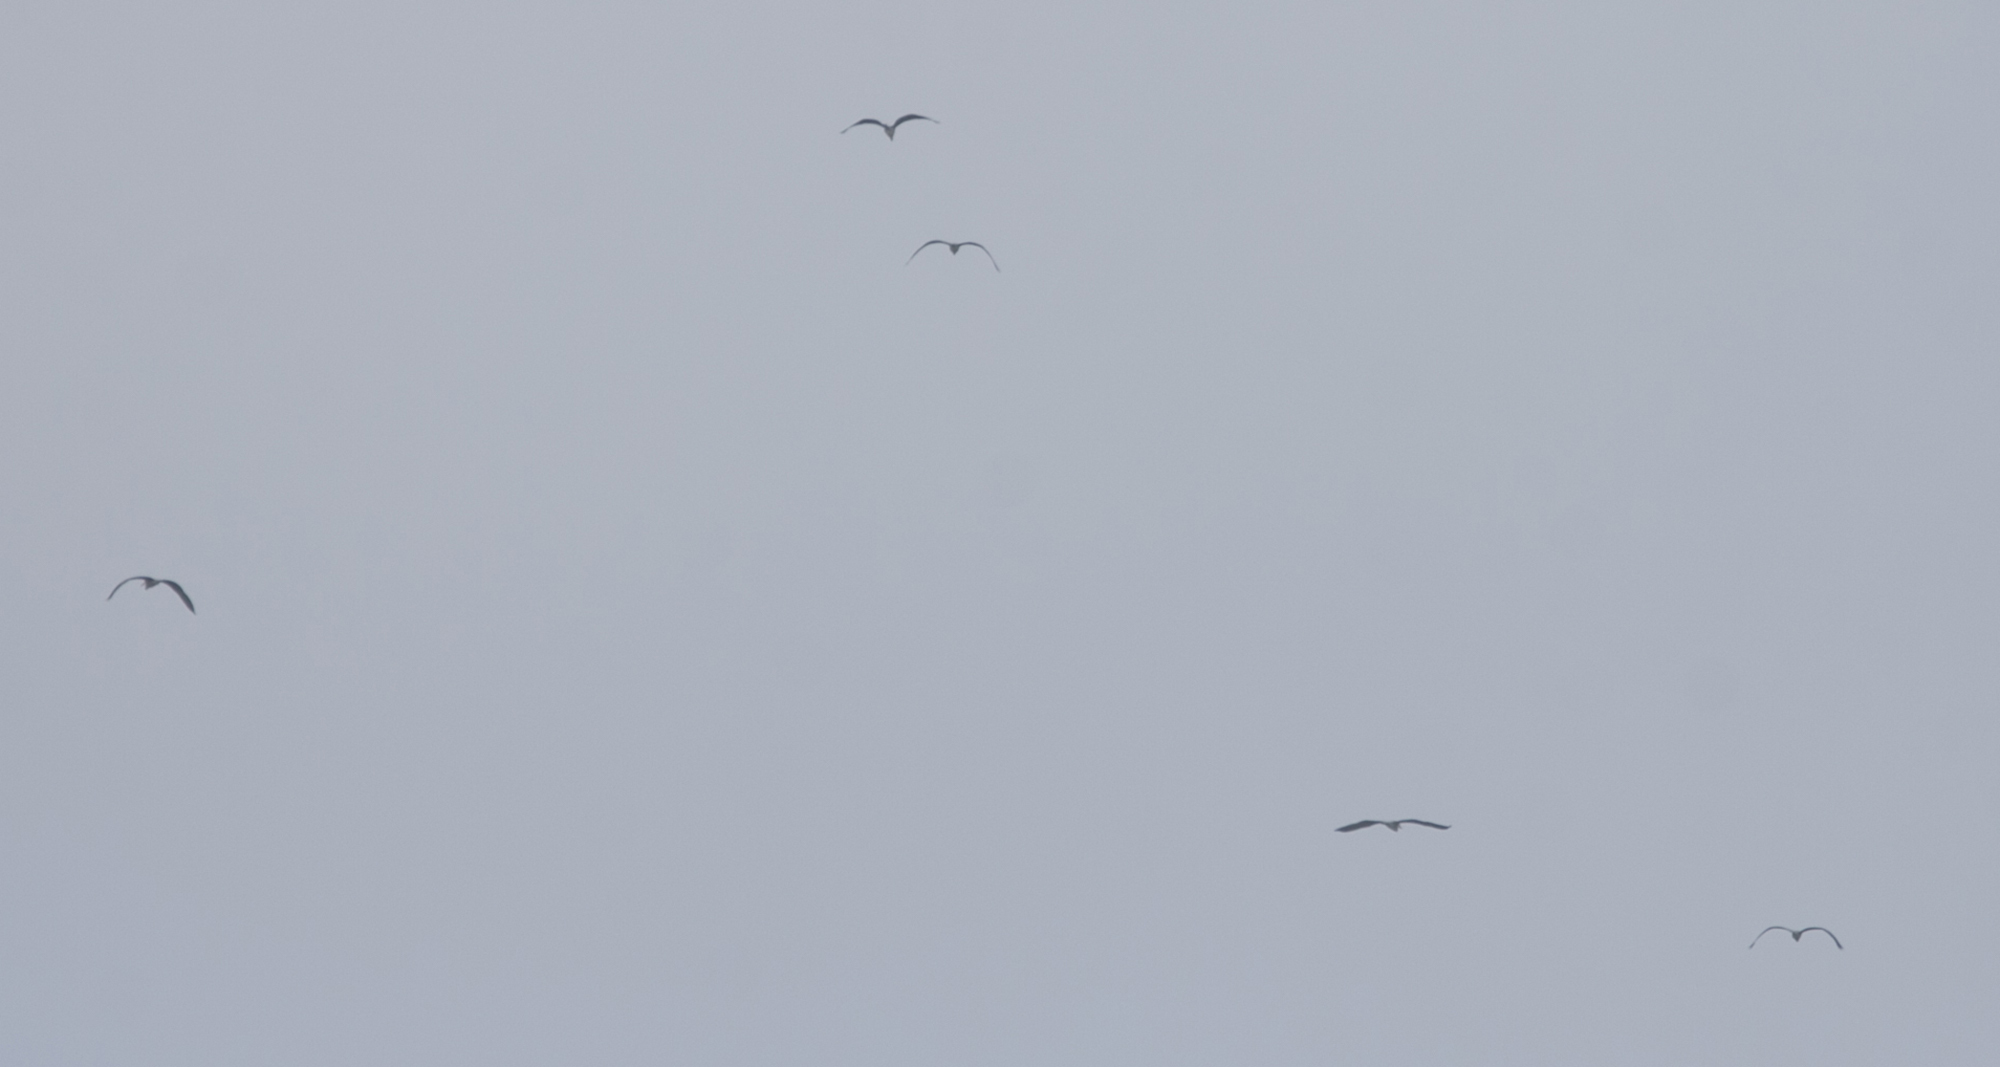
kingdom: Animalia
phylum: Chordata
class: Aves
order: Pelecaniformes
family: Ardeidae
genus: Ardea
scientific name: Ardea cinerea
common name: Grey heron
